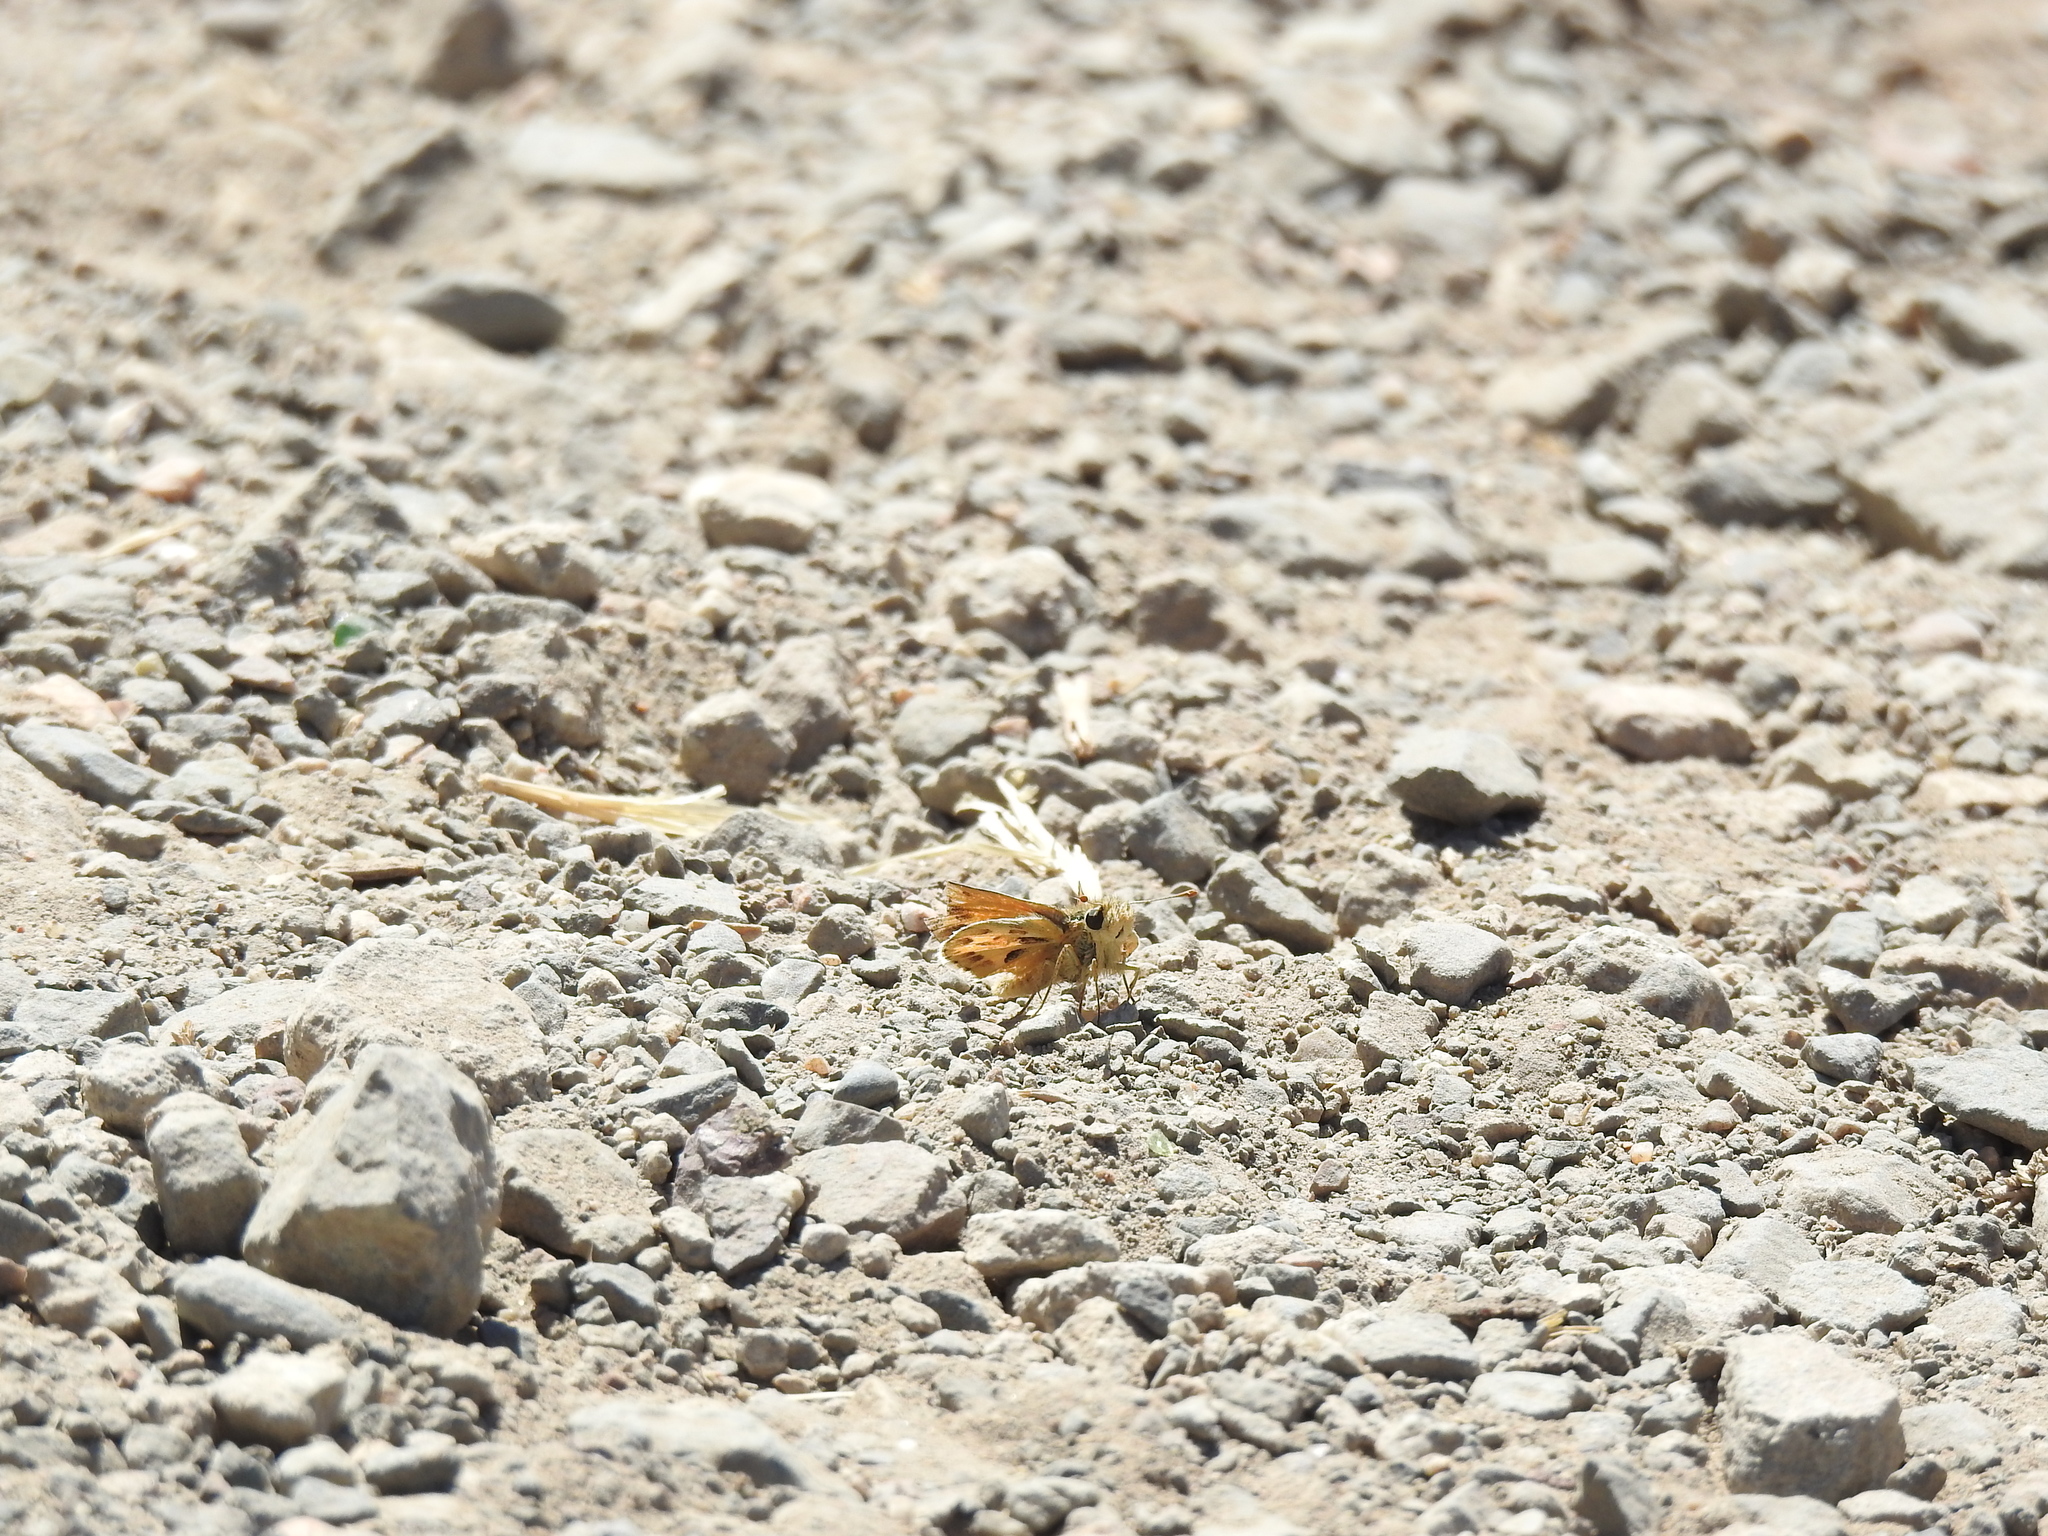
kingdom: Animalia
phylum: Arthropoda
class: Insecta
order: Lepidoptera
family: Hesperiidae
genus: Polites
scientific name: Polites sabuleti
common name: Sandhill skipper
